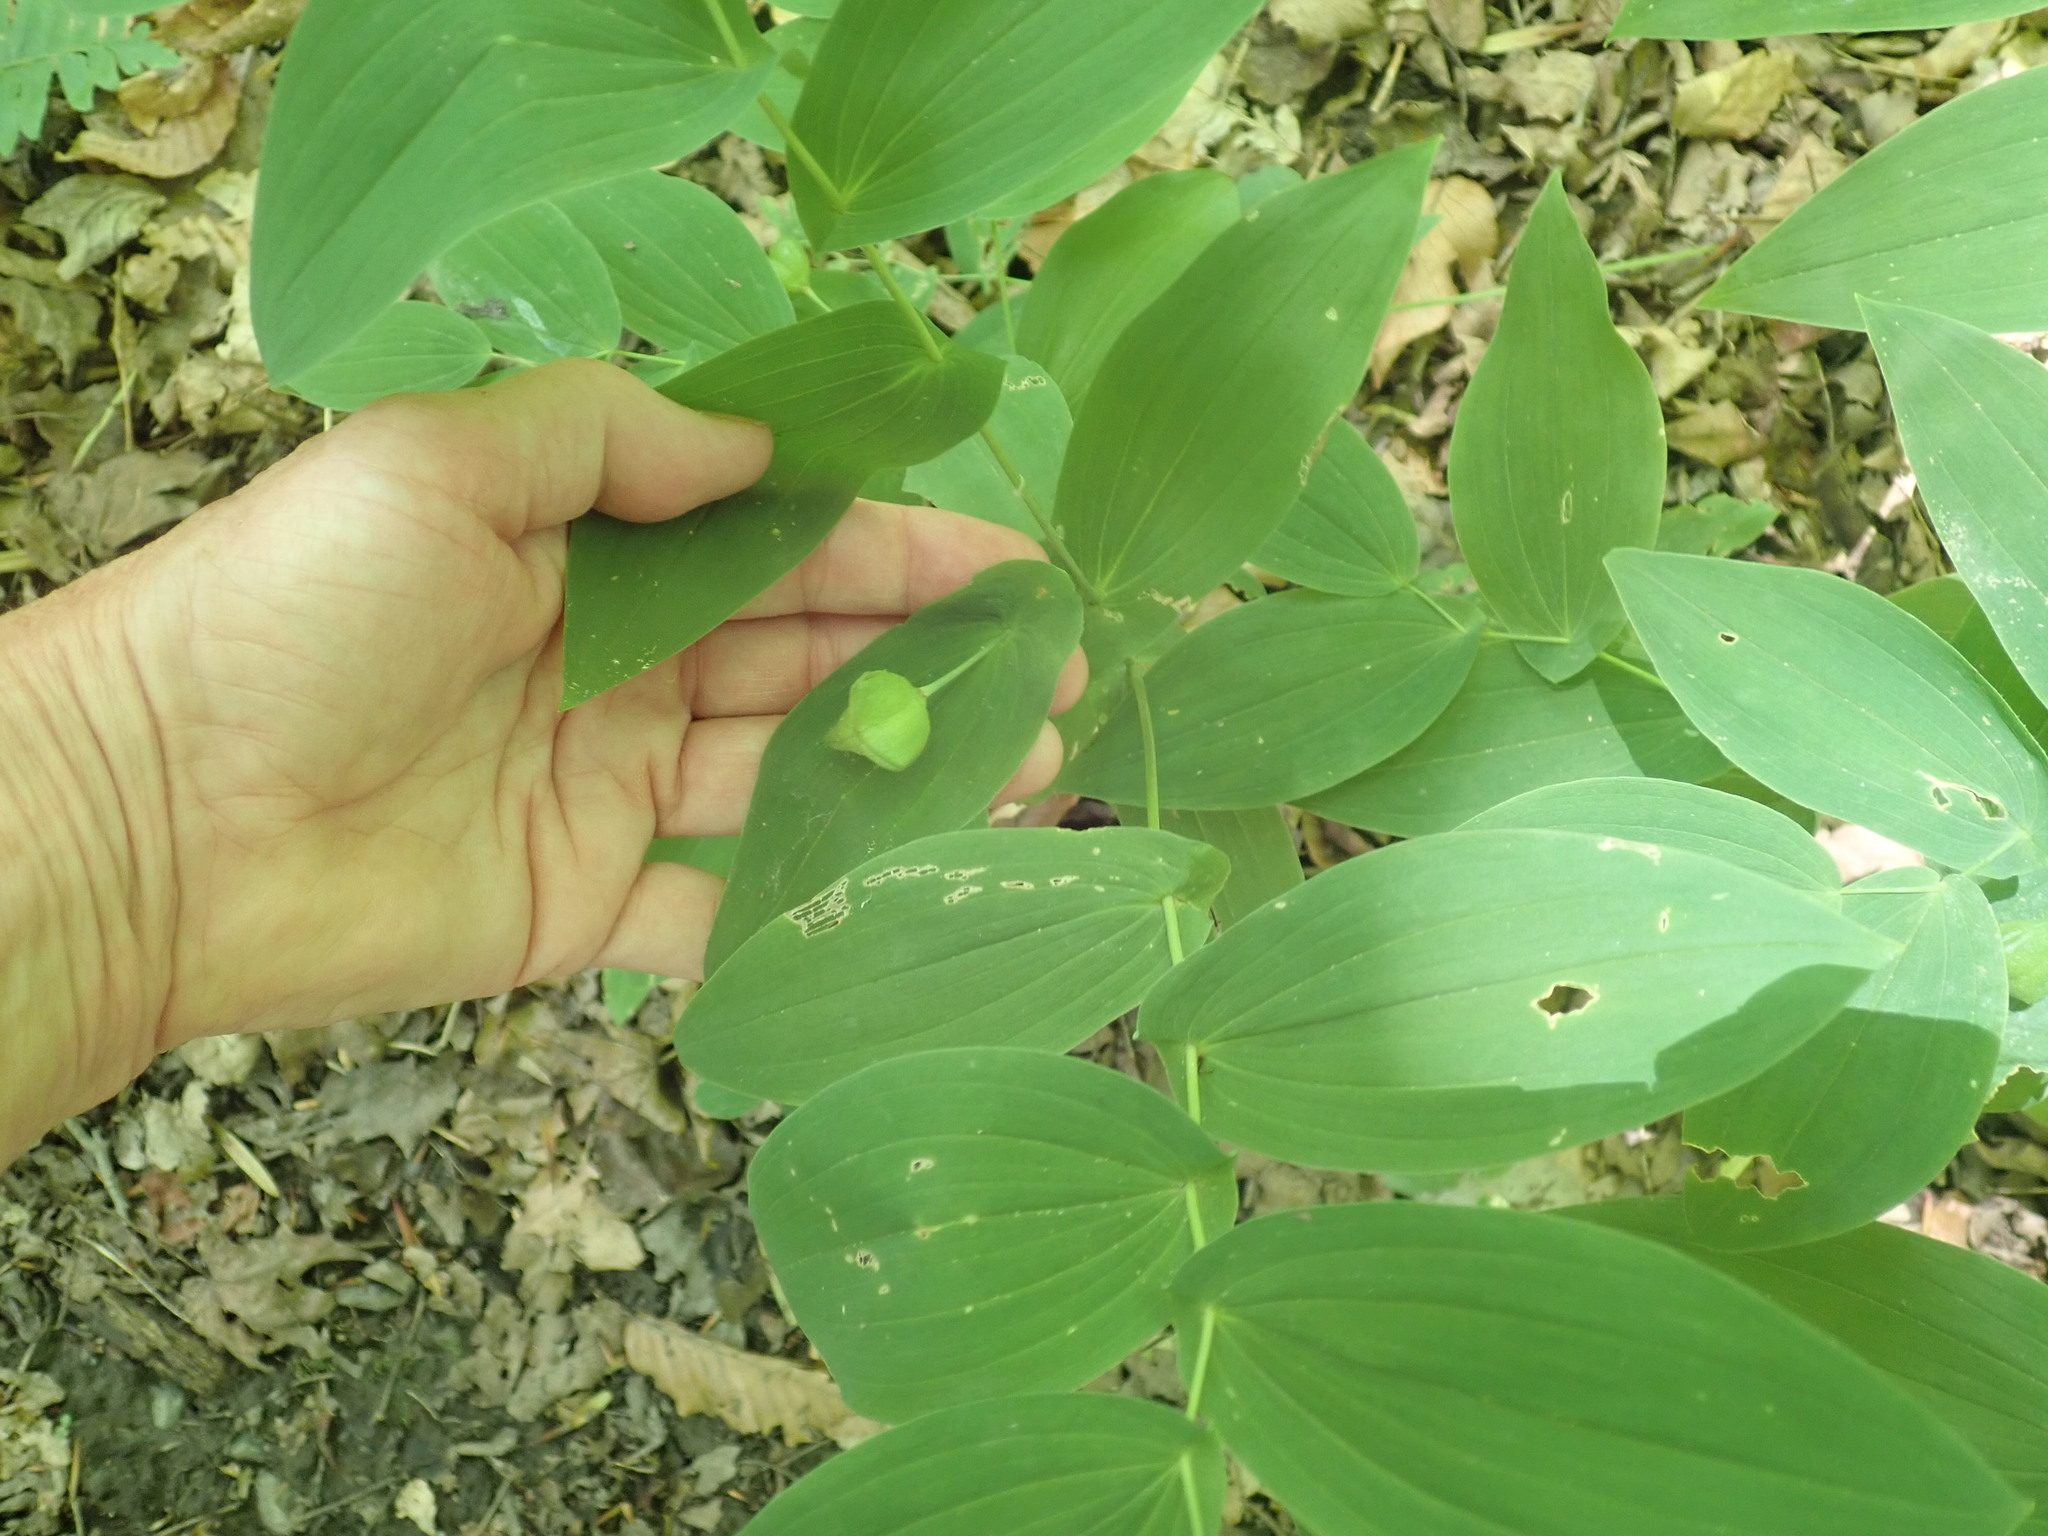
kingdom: Plantae
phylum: Tracheophyta
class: Liliopsida
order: Liliales
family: Colchicaceae
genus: Uvularia
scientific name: Uvularia grandiflora
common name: Bellwort
